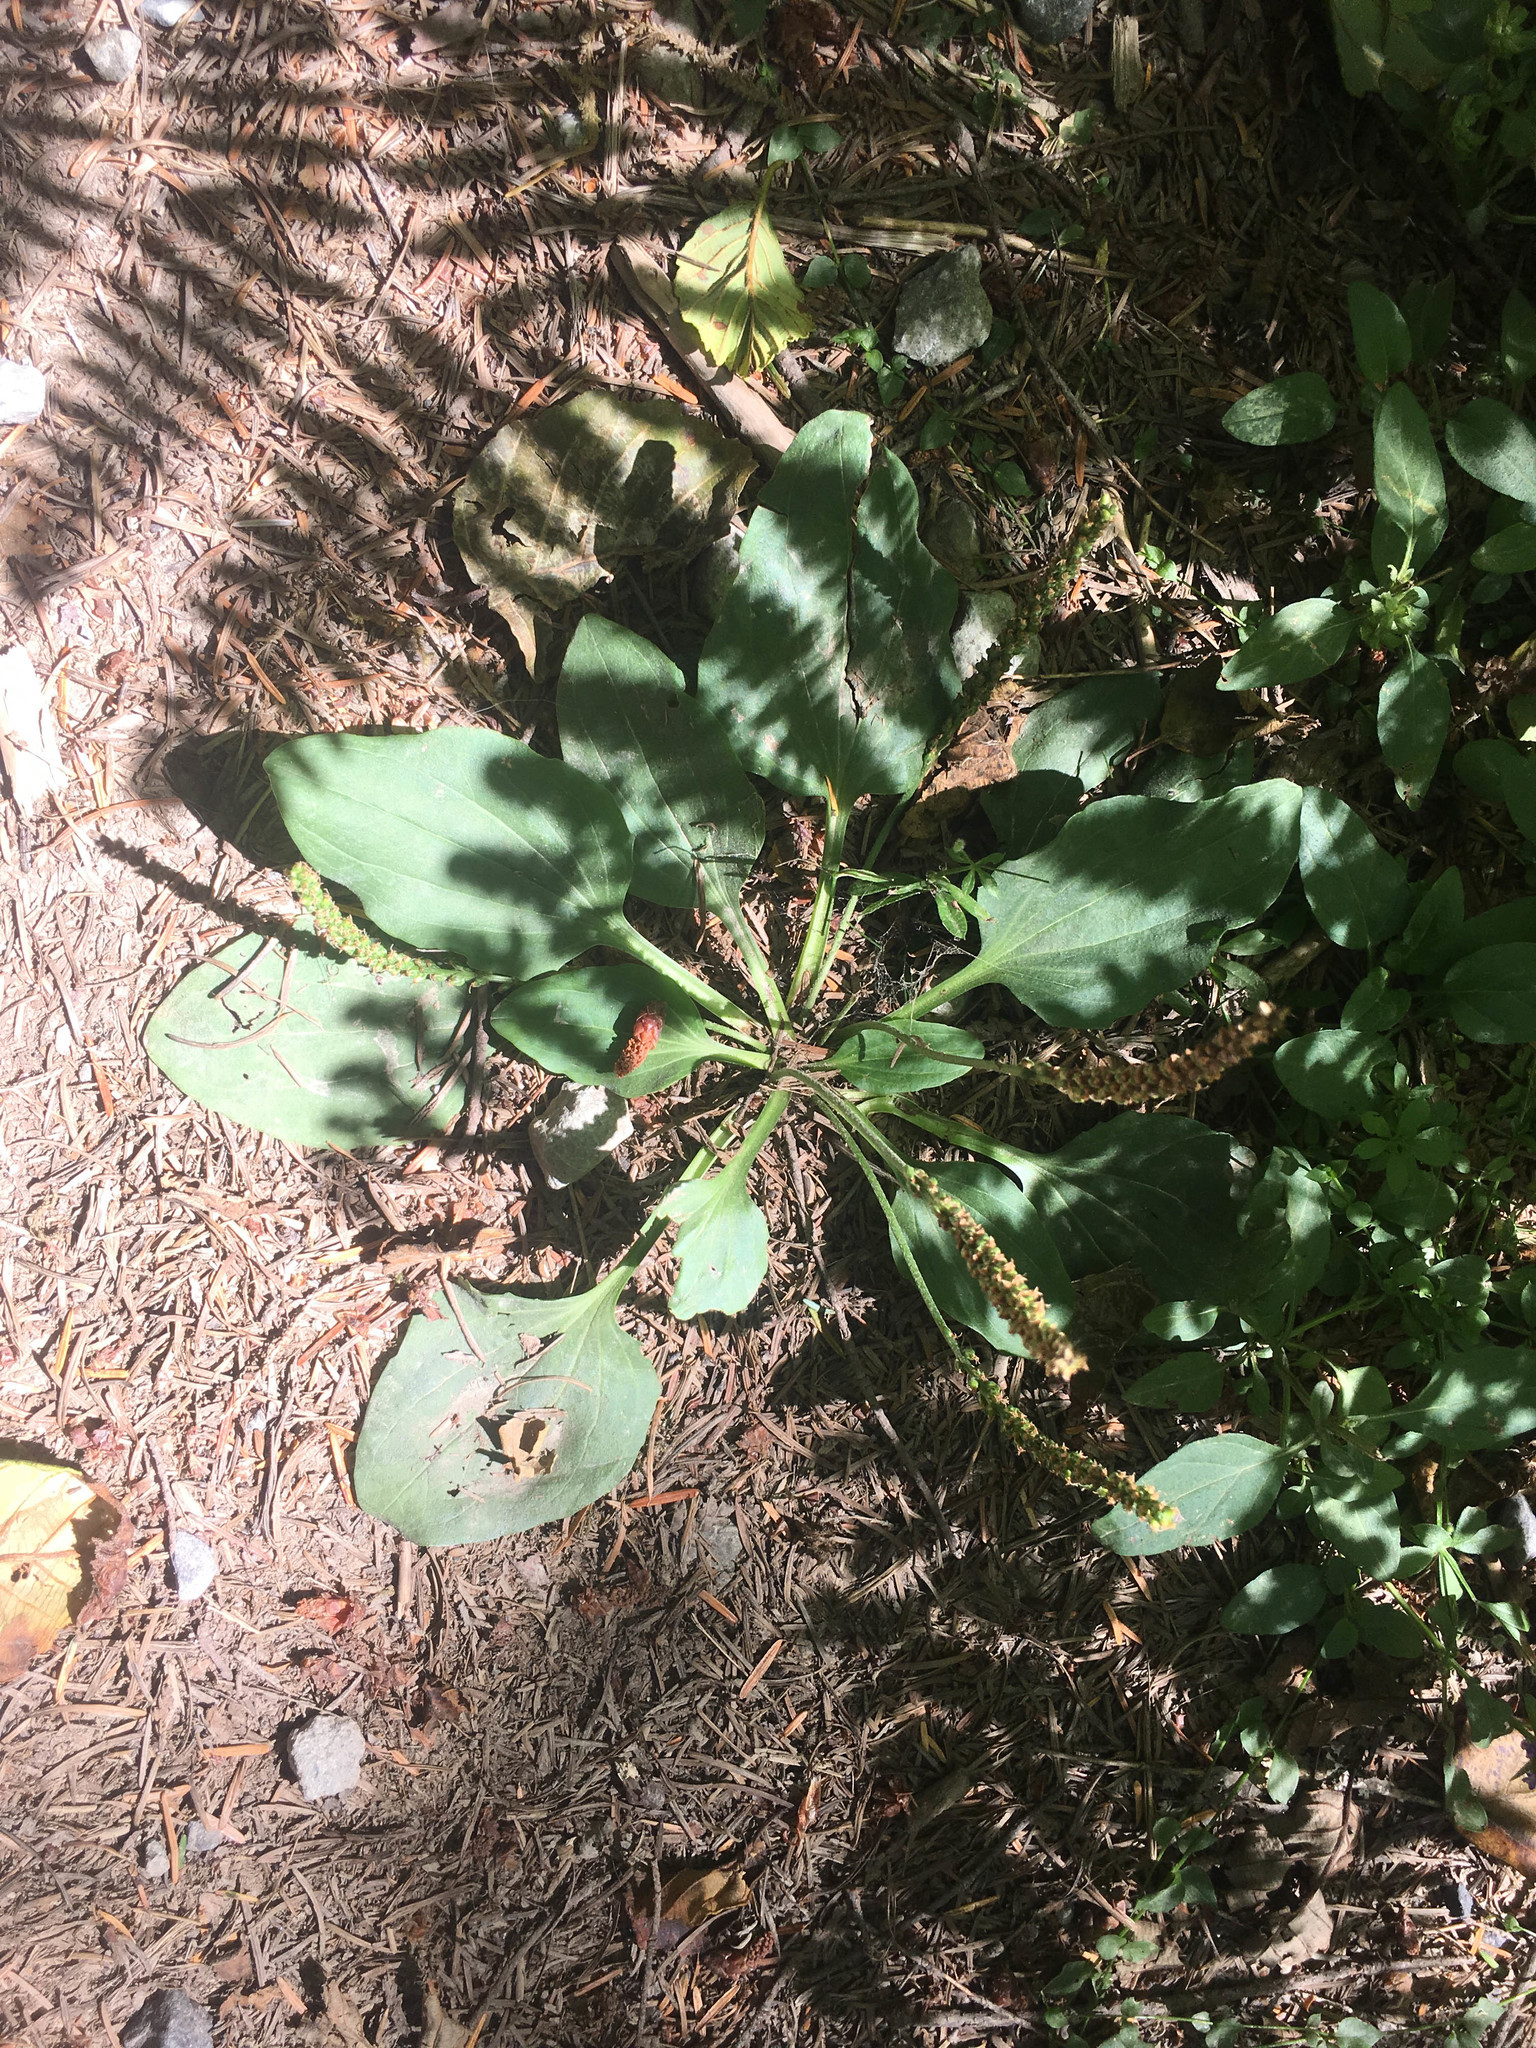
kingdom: Plantae
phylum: Tracheophyta
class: Magnoliopsida
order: Lamiales
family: Plantaginaceae
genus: Plantago
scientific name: Plantago major
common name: Common plantain
